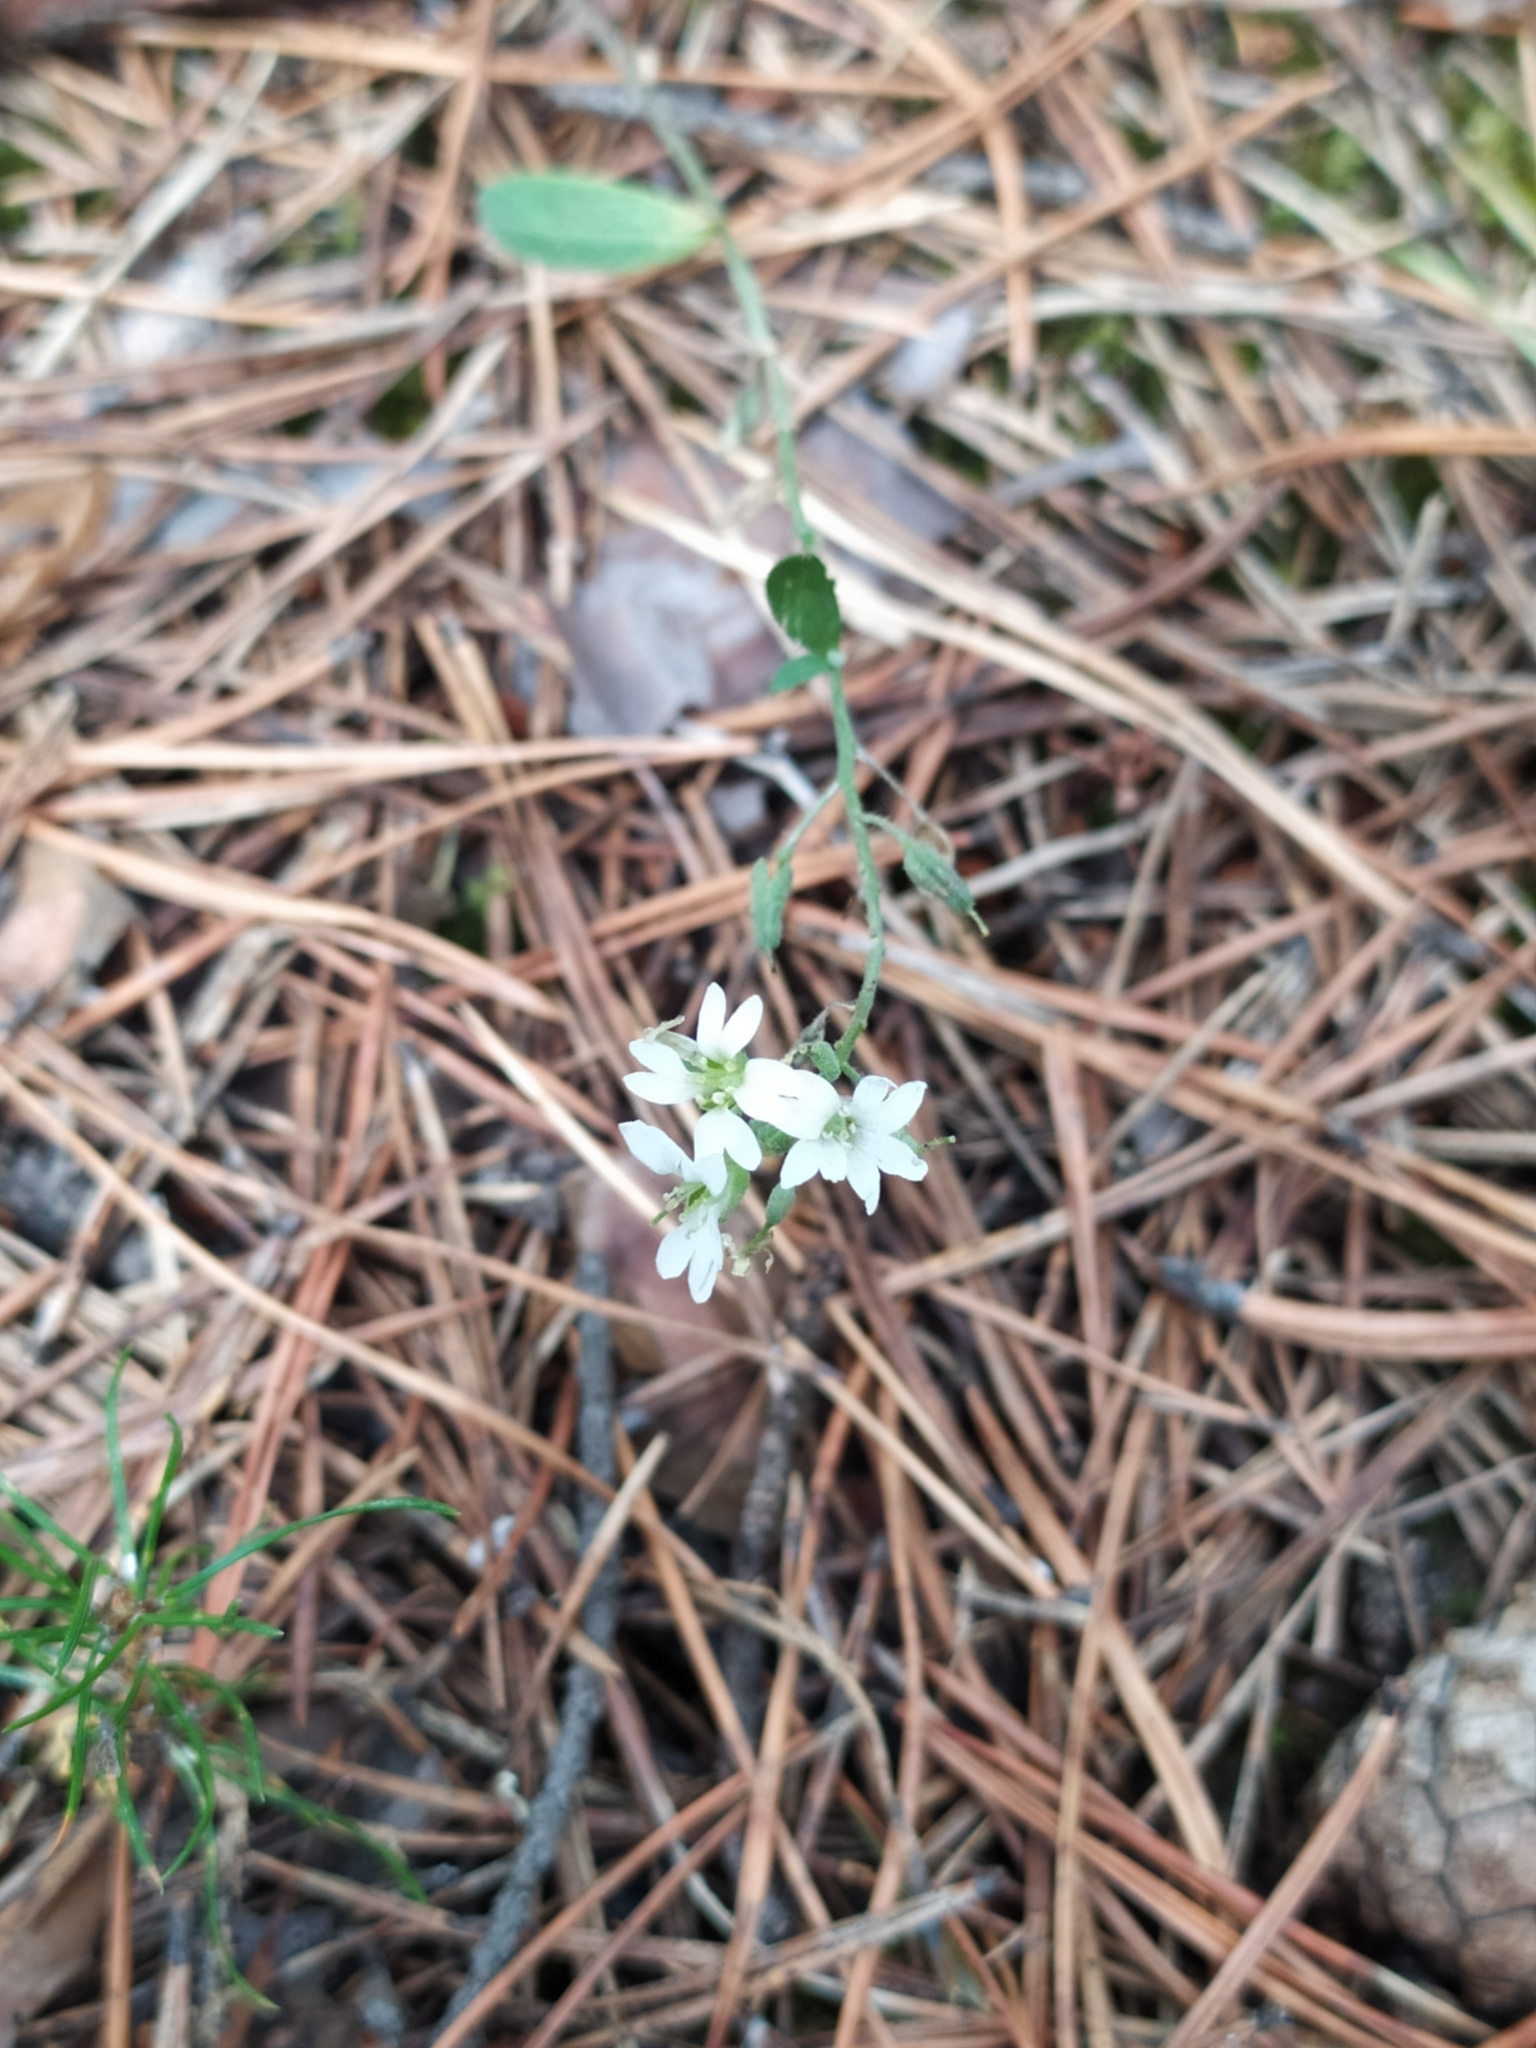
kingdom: Plantae
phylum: Tracheophyta
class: Magnoliopsida
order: Brassicales
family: Brassicaceae
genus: Berteroa
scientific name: Berteroa incana
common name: Hoary alison
